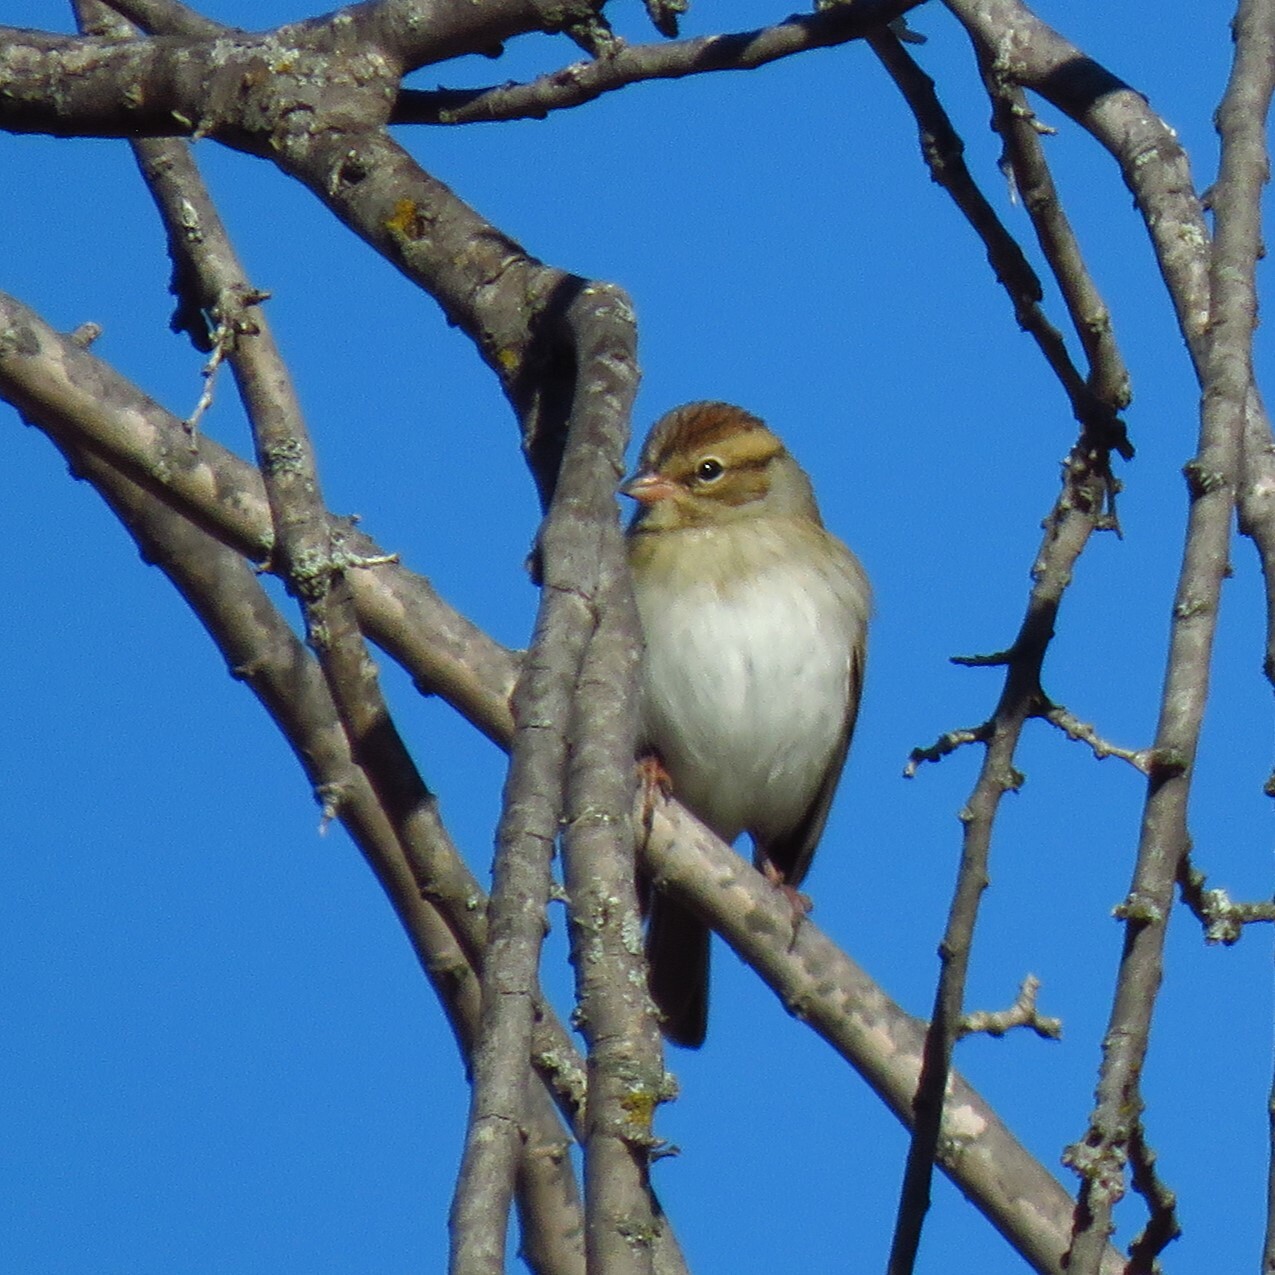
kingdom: Animalia
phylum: Chordata
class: Aves
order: Passeriformes
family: Passerellidae
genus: Spizella
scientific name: Spizella passerina
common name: Chipping sparrow
